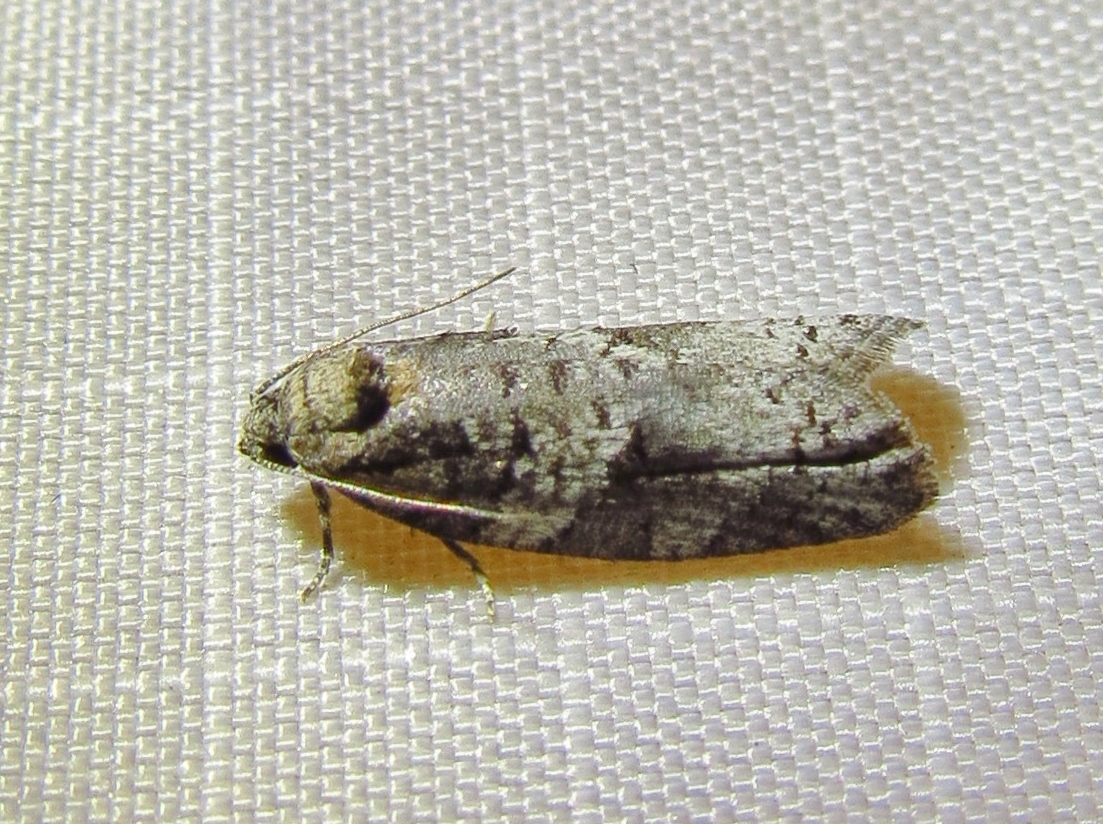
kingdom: Animalia
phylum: Arthropoda
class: Insecta
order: Lepidoptera
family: Tortricidae
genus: Decodes
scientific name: Decodes basiplagana
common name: Gray-marked tortricid
